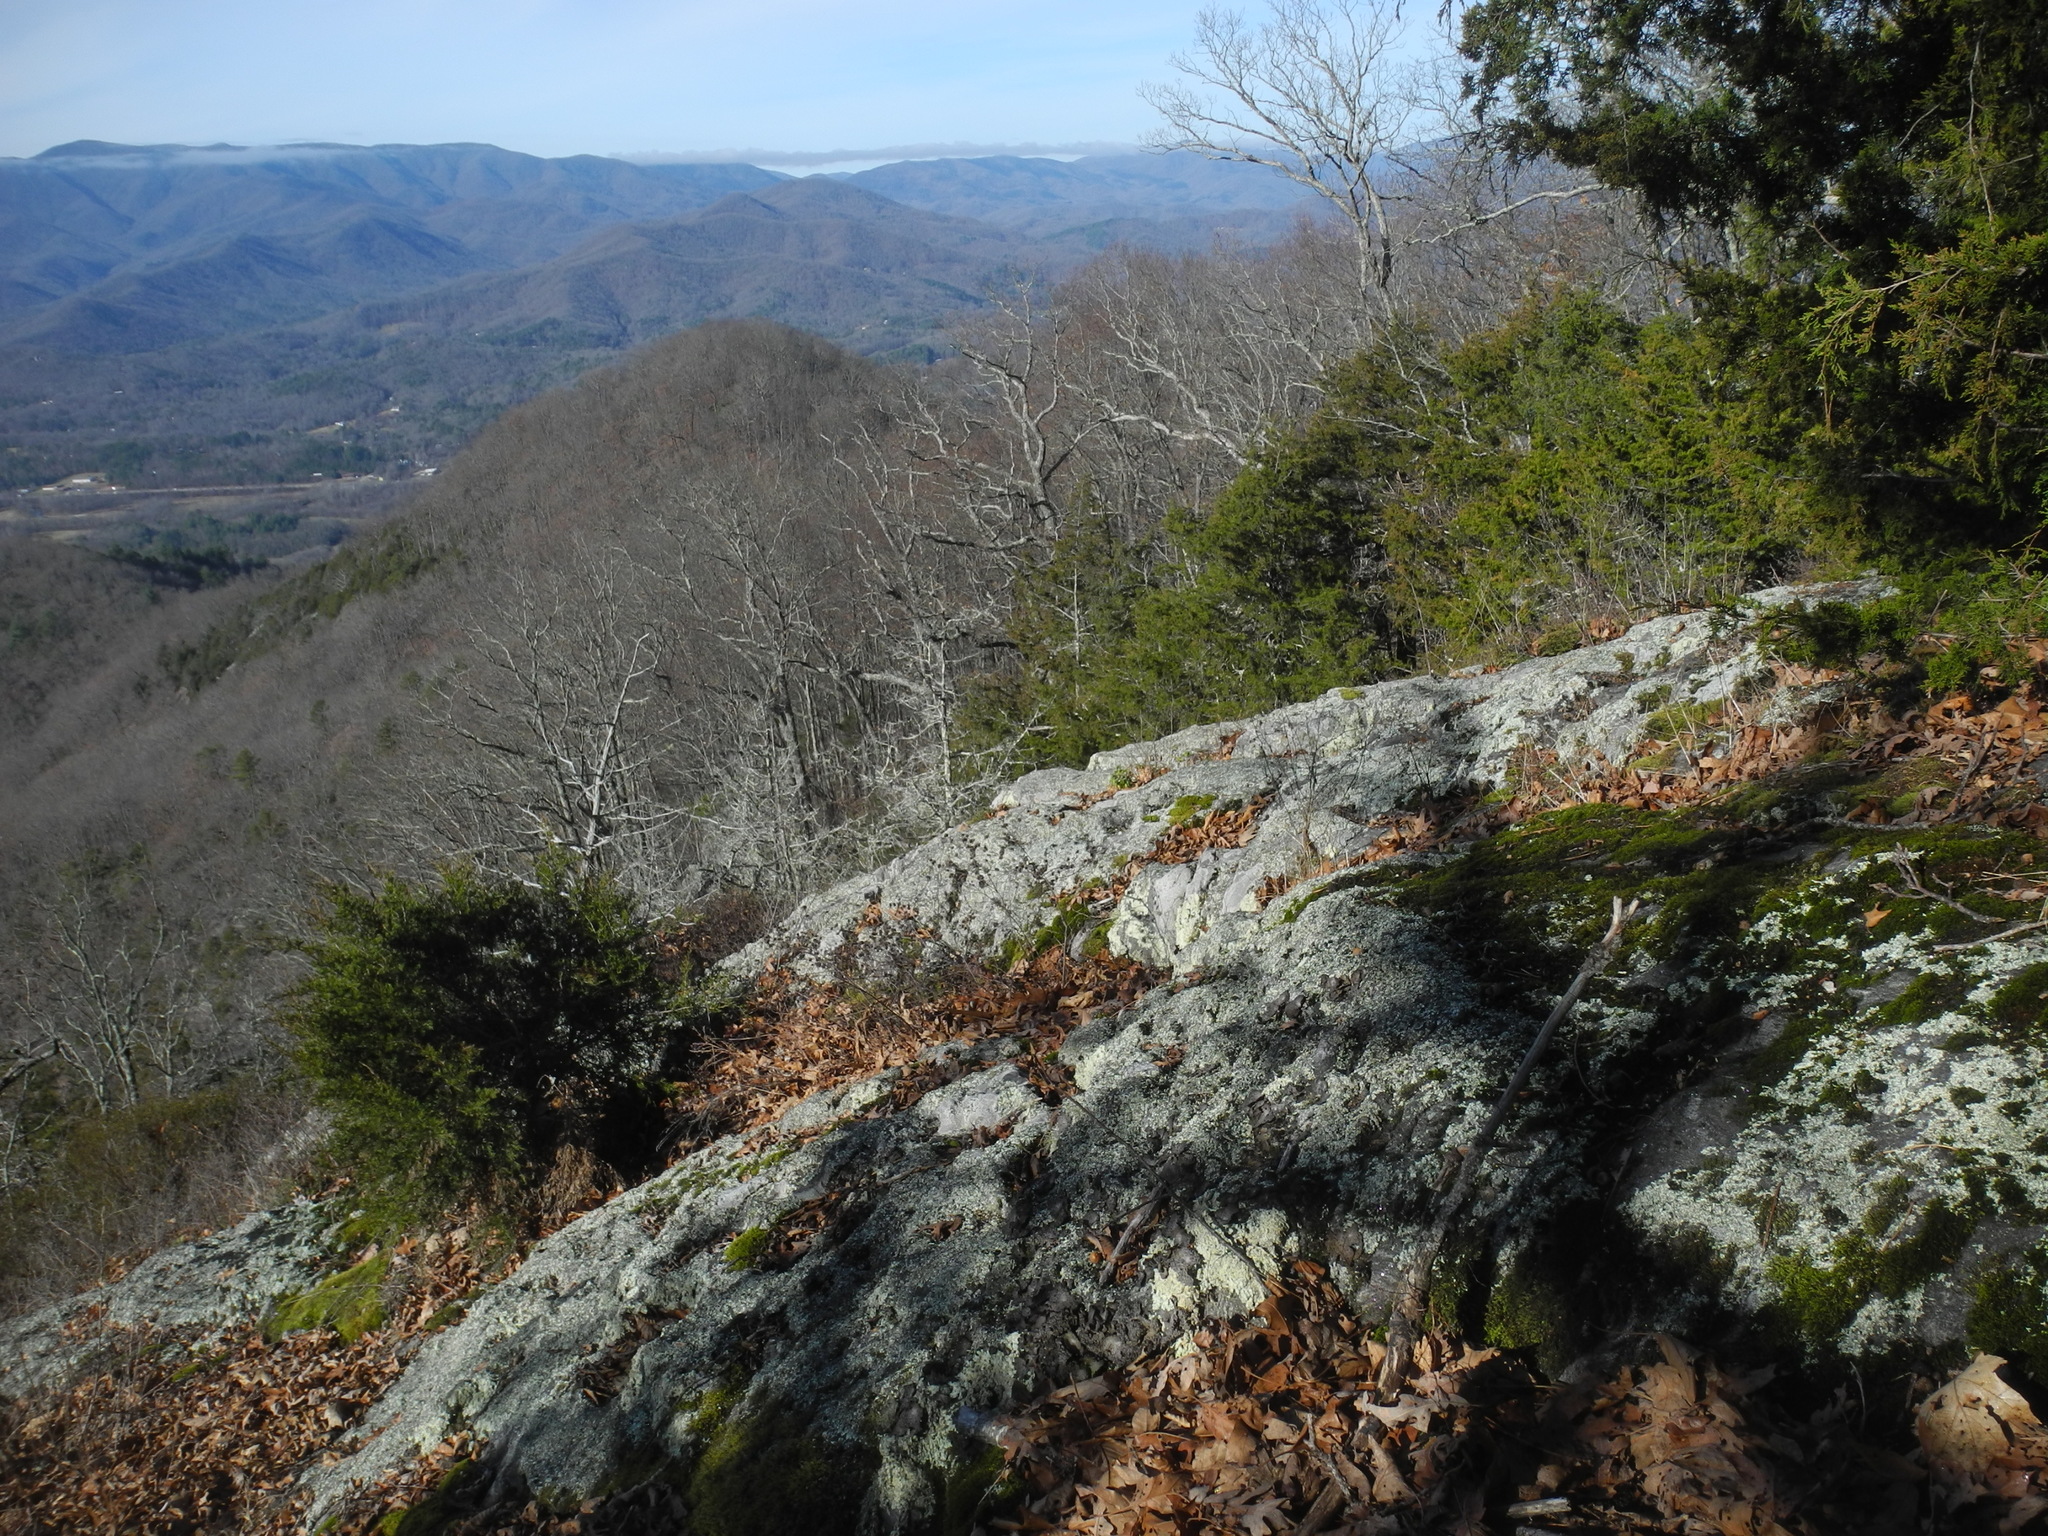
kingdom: Plantae
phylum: Tracheophyta
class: Pinopsida
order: Pinales
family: Cupressaceae
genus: Juniperus
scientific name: Juniperus virginiana
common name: Red juniper
